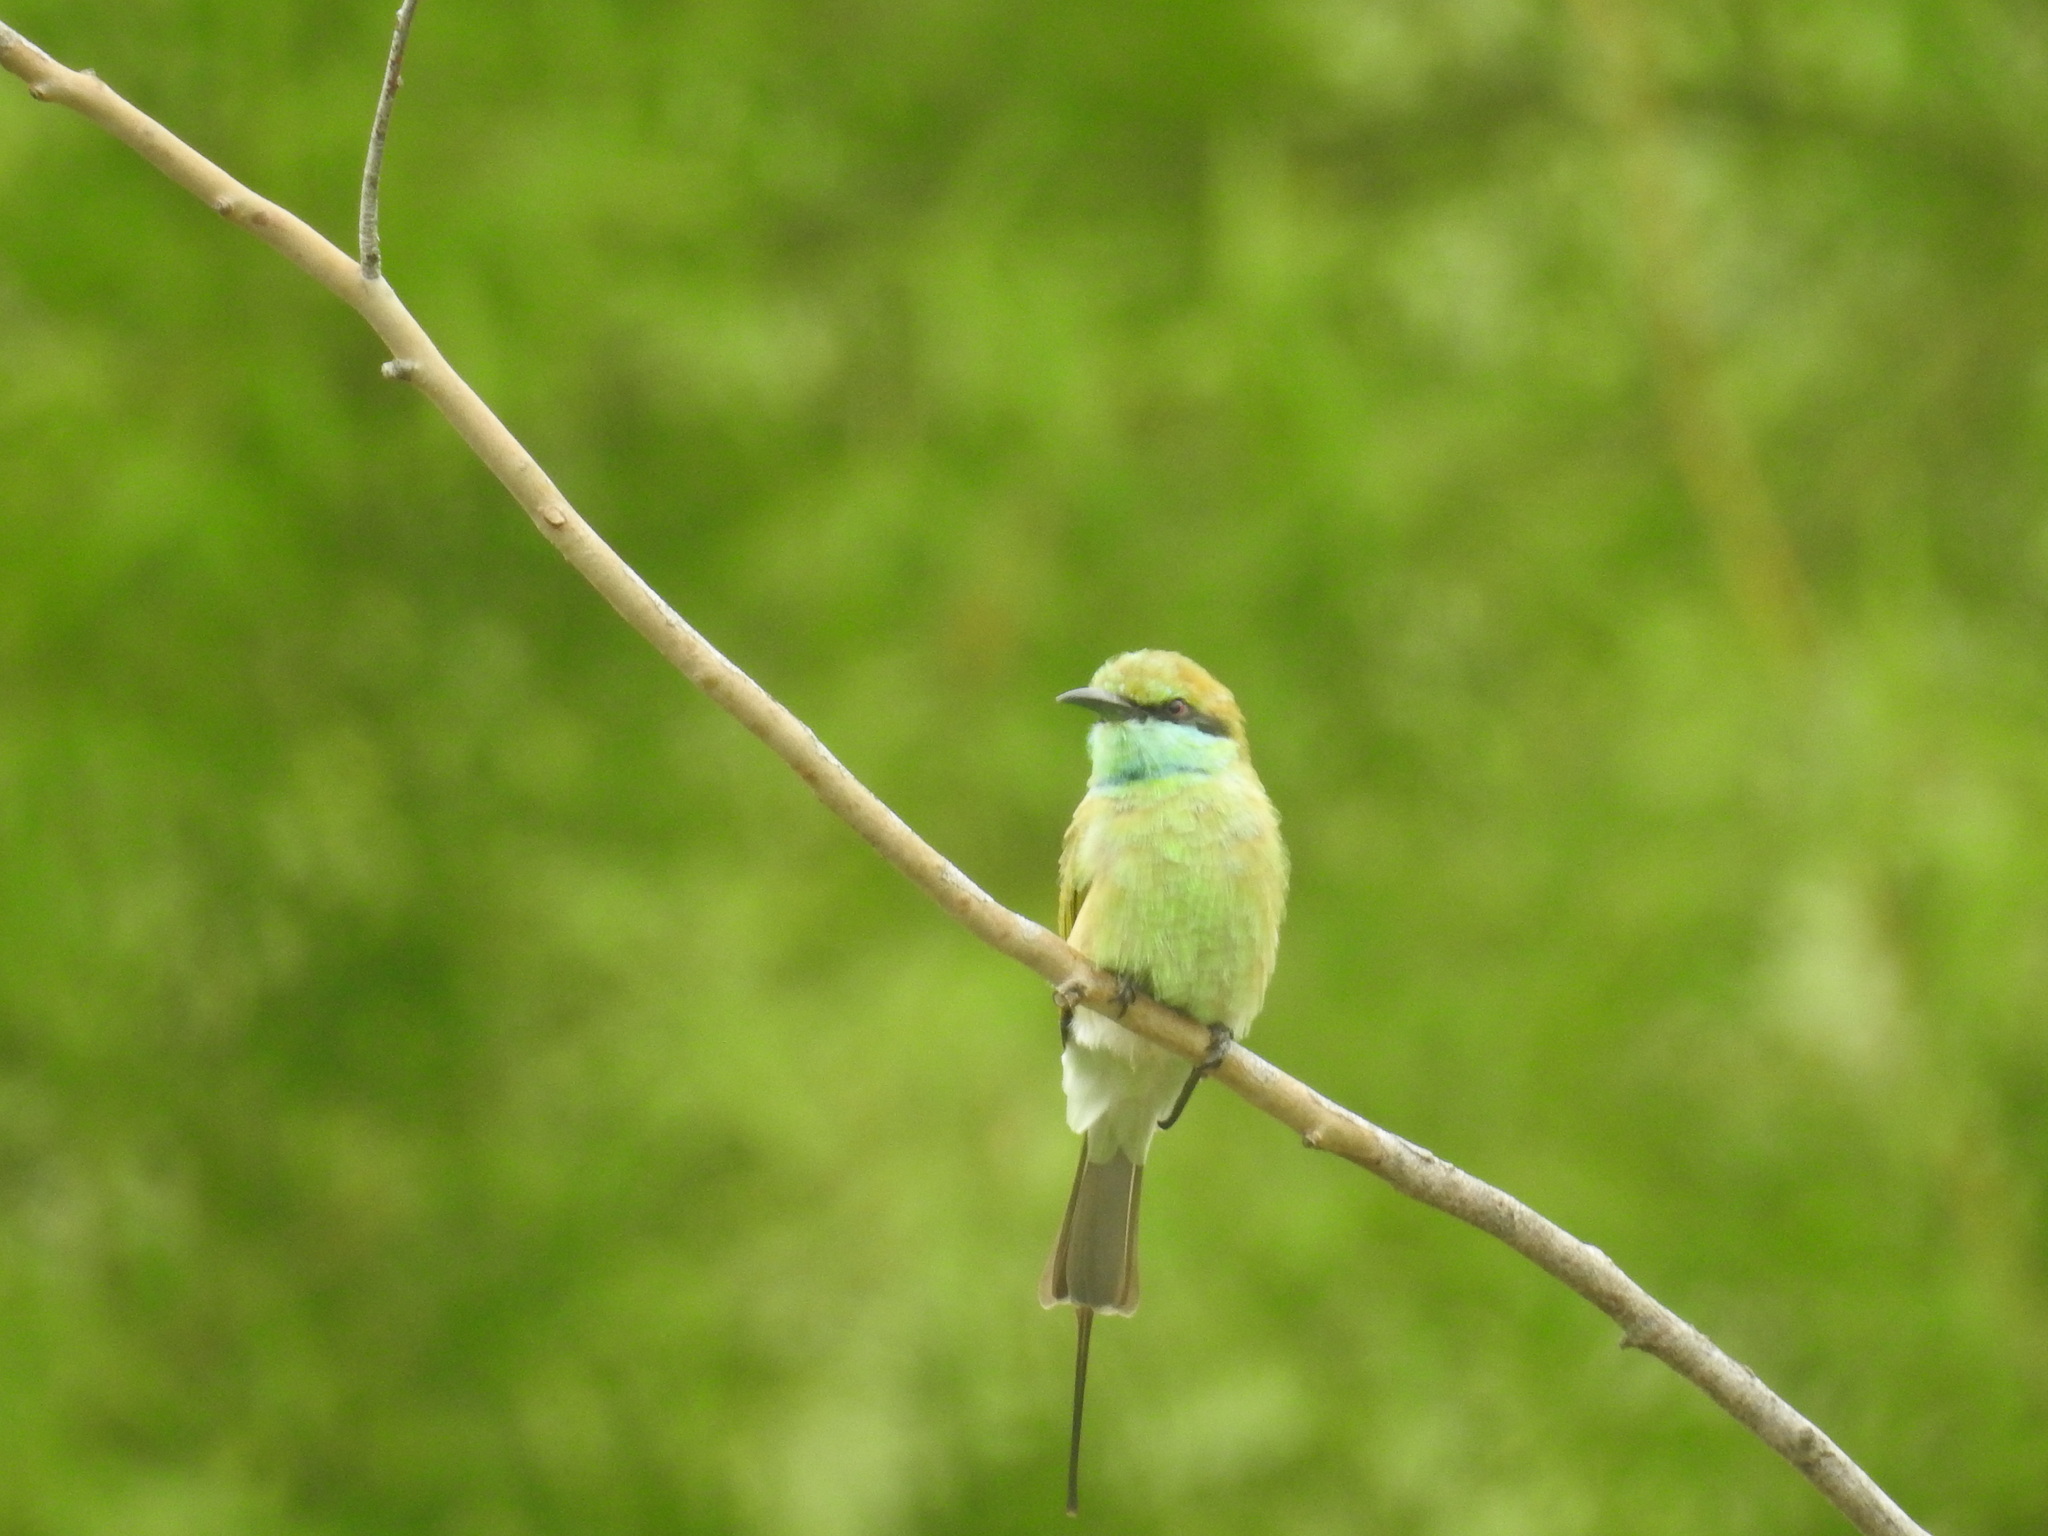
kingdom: Animalia
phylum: Chordata
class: Aves
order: Coraciiformes
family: Meropidae
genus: Merops
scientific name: Merops orientalis
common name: Green bee-eater
